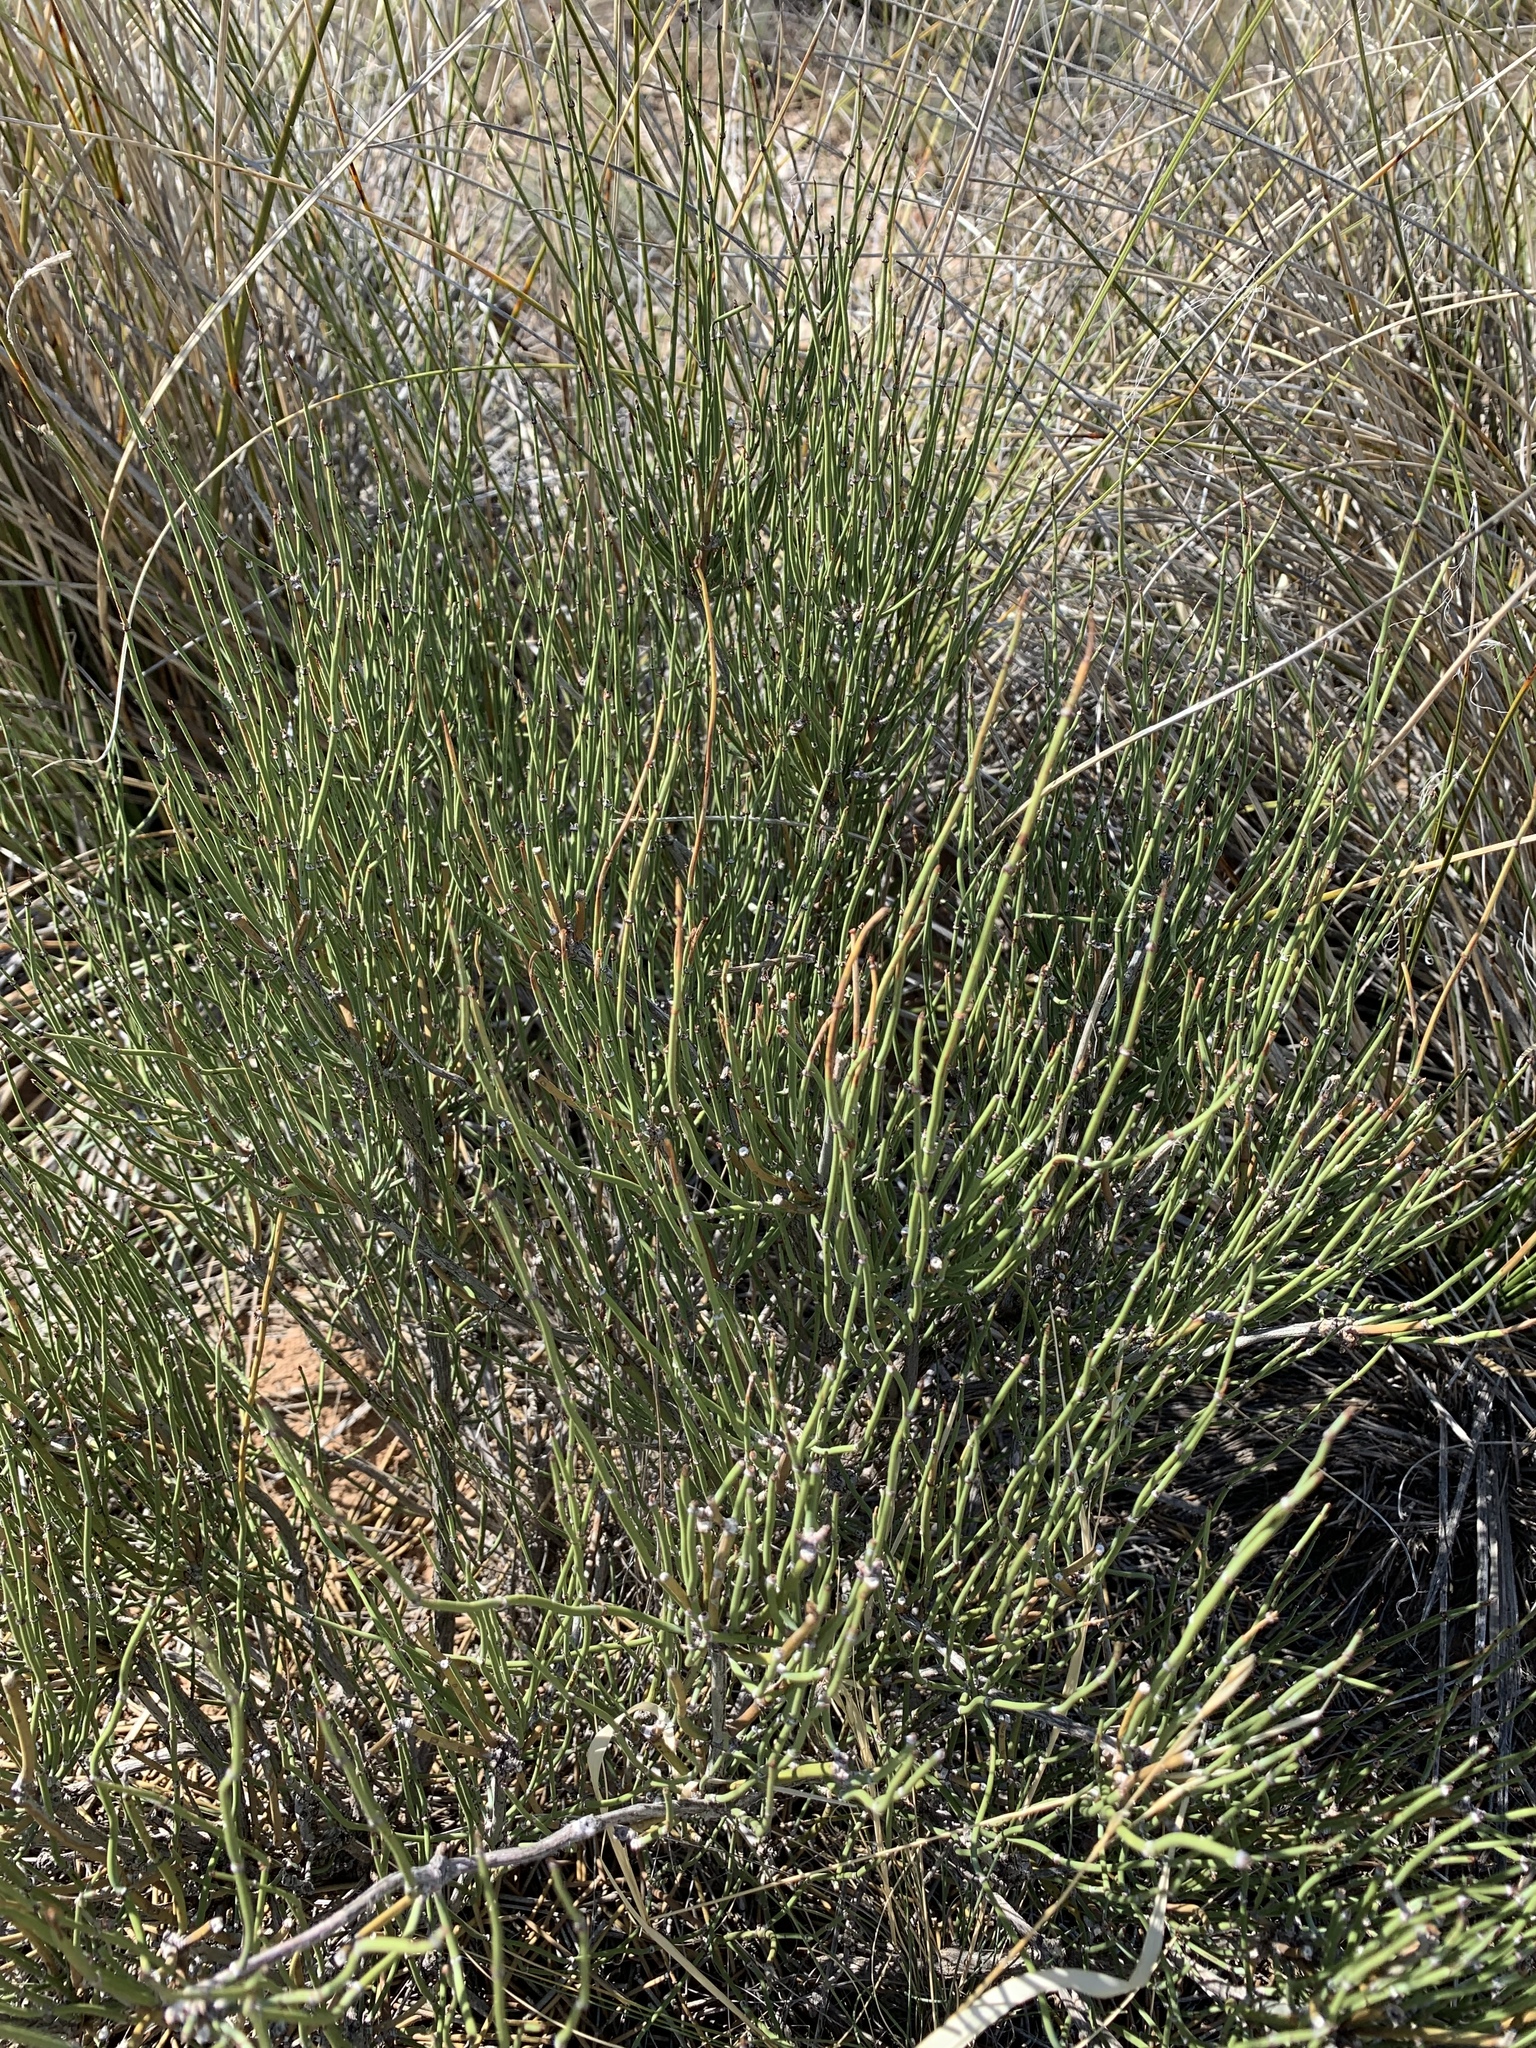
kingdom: Plantae
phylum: Tracheophyta
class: Gnetopsida
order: Ephedrales
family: Ephedraceae
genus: Ephedra
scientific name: Ephedra trifurca
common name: Mexican-tea
